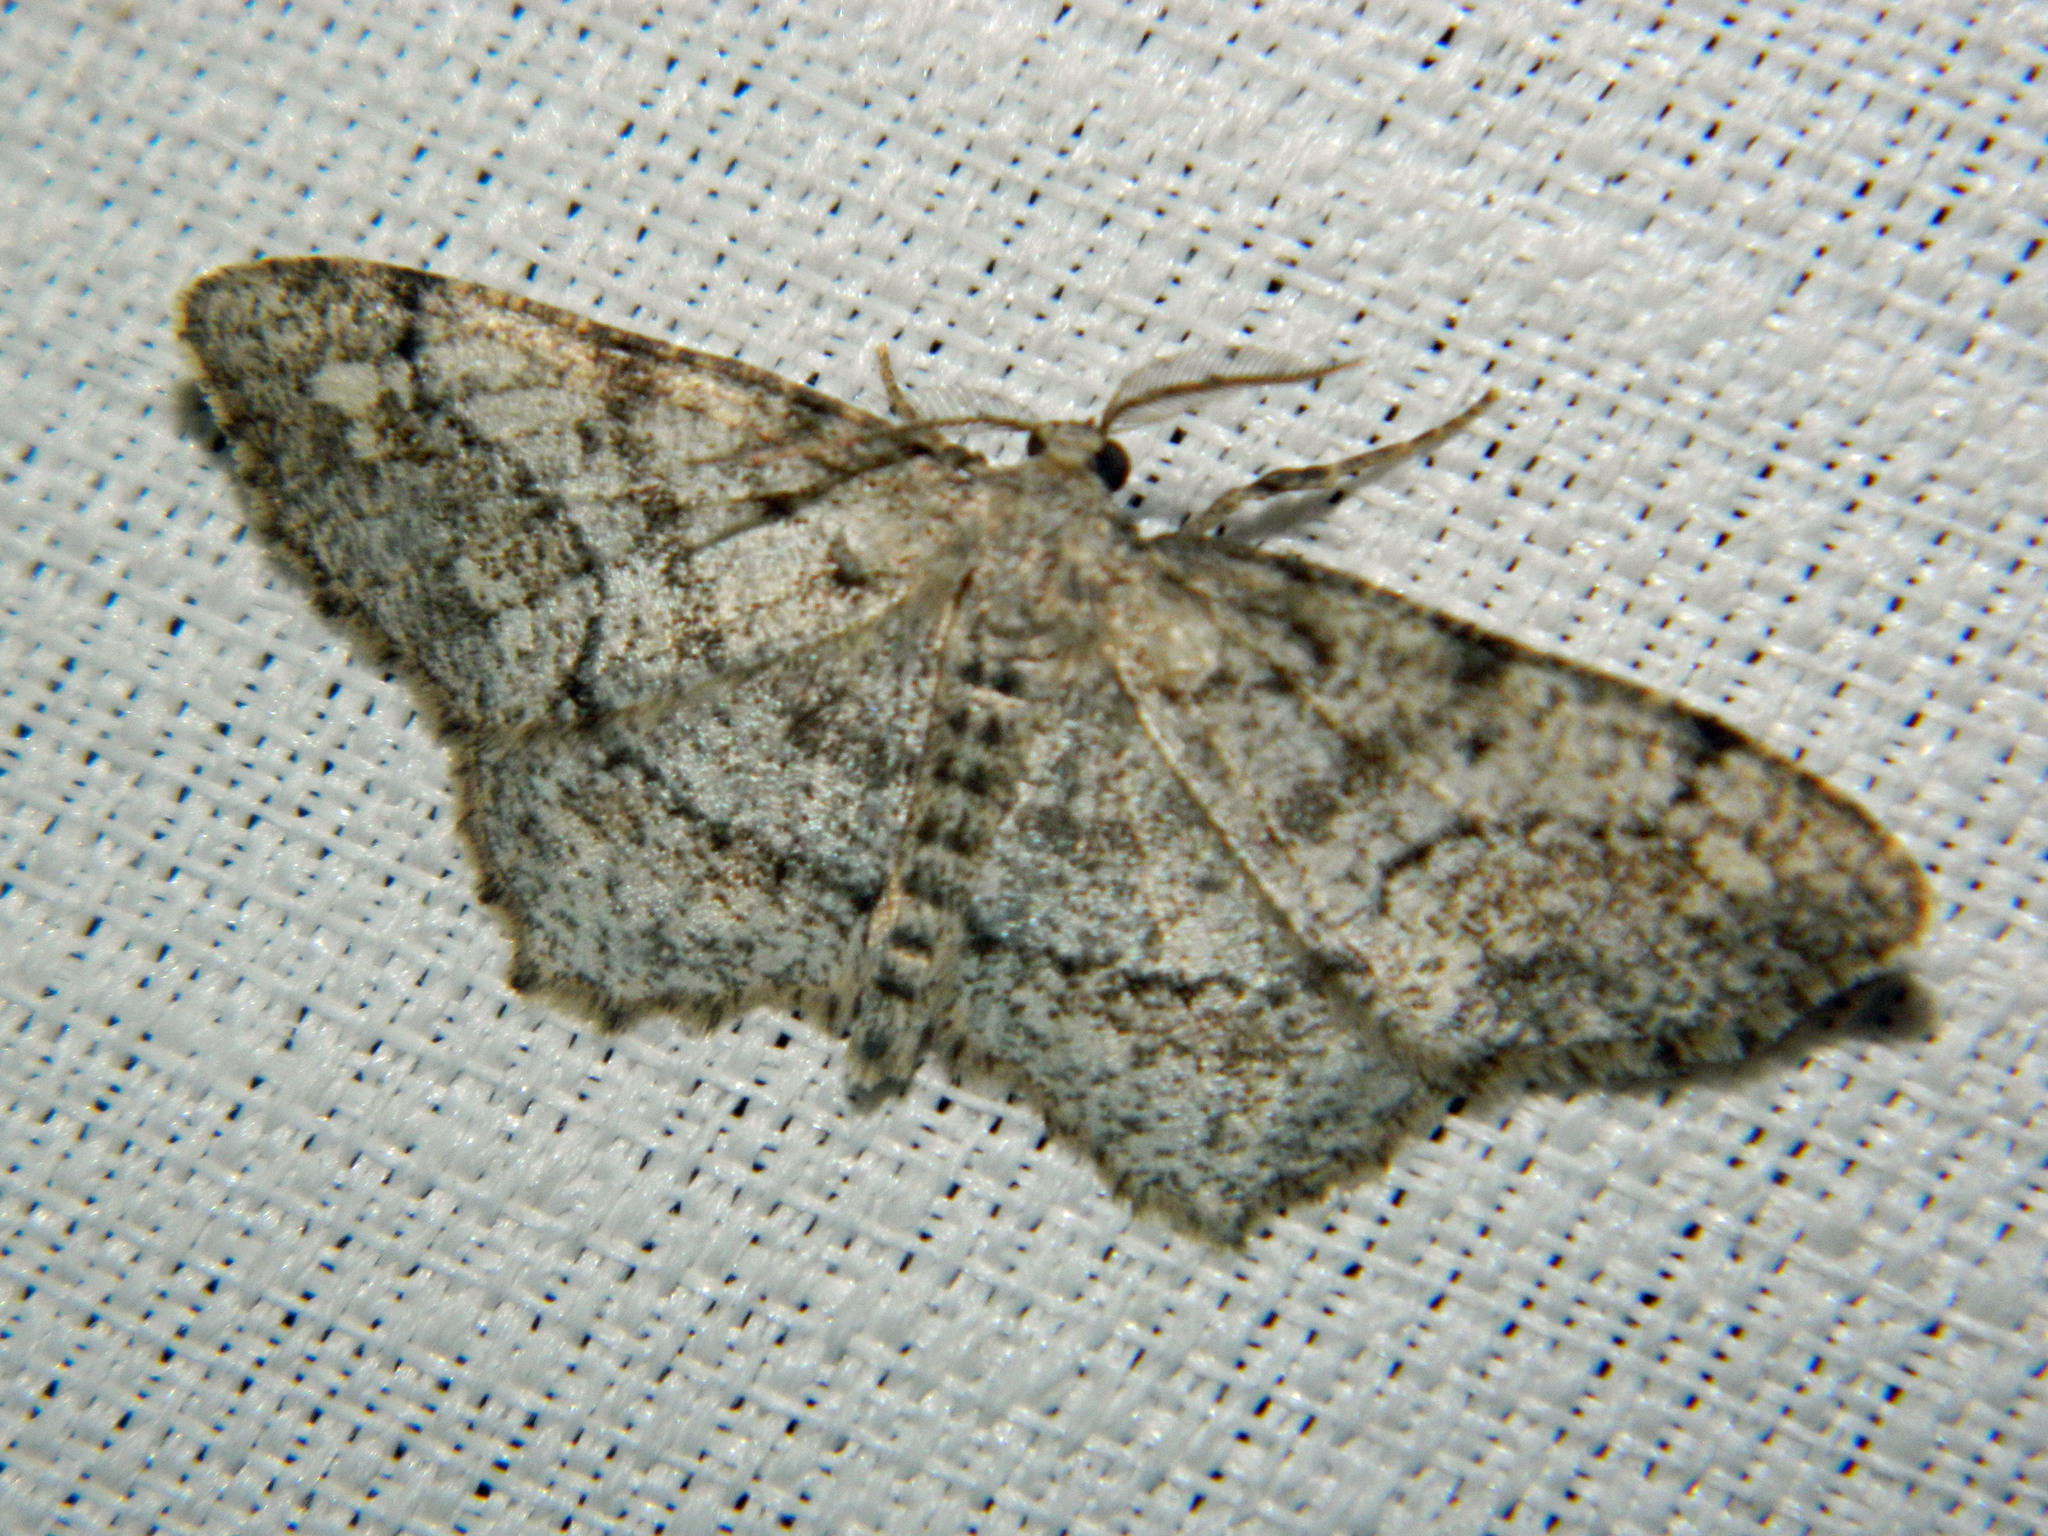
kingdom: Animalia
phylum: Arthropoda
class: Insecta
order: Lepidoptera
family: Geometridae
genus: Hypagyrtis
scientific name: Hypagyrtis unipunctata
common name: One-spotted variant
